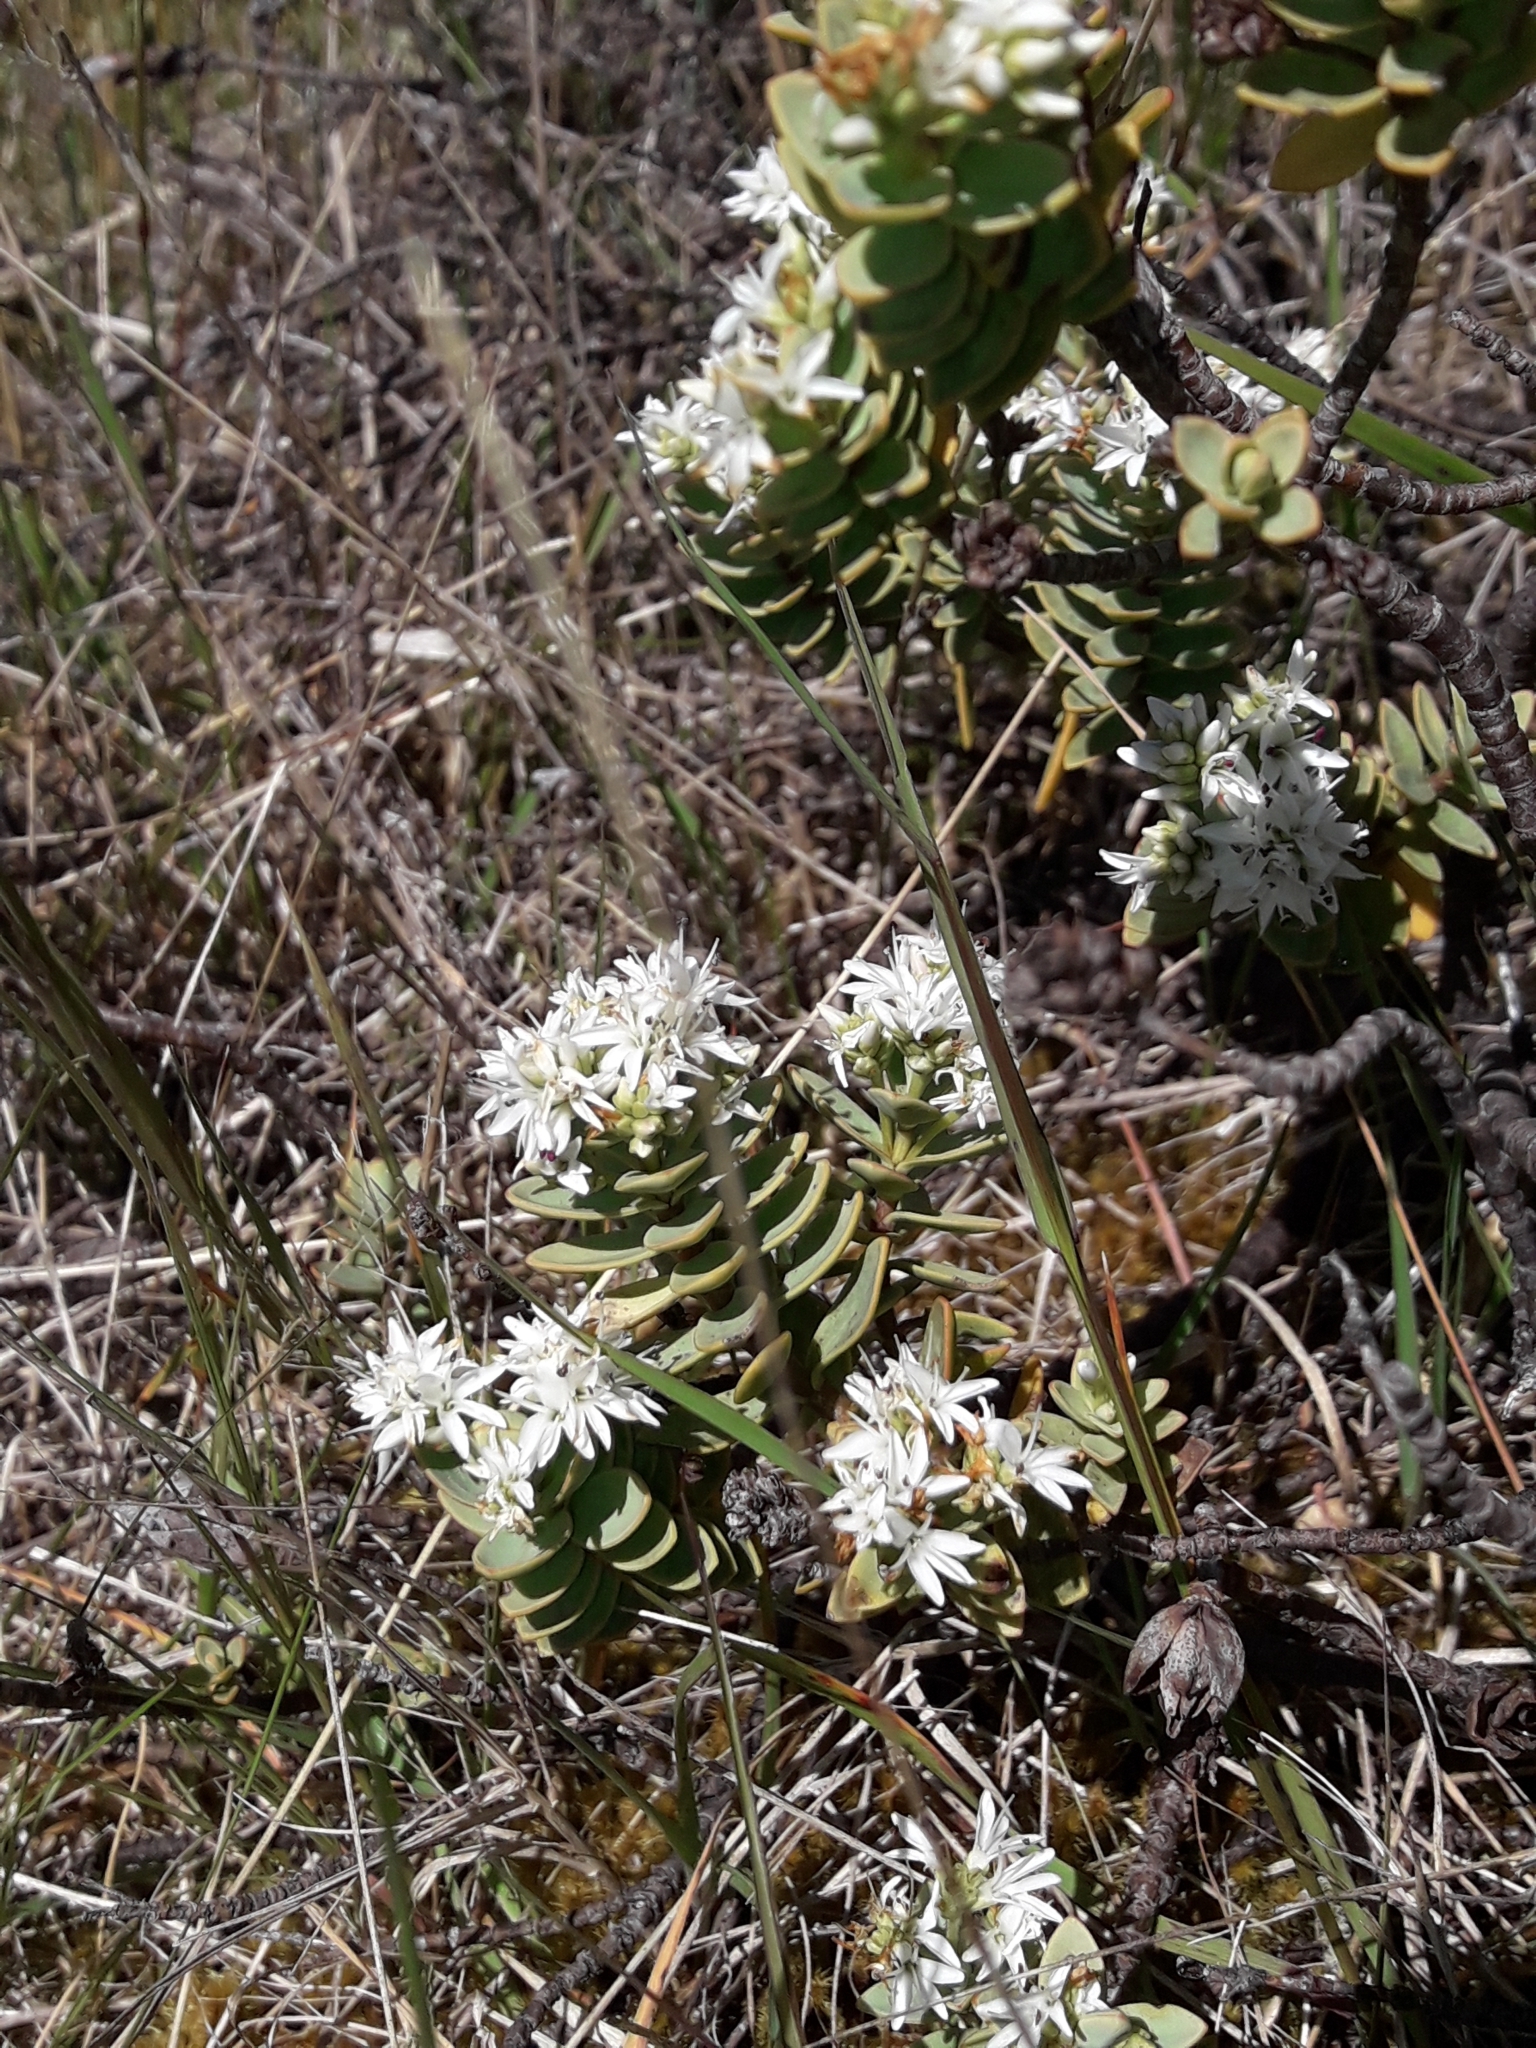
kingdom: Plantae
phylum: Tracheophyta
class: Magnoliopsida
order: Lamiales
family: Plantaginaceae
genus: Veronica
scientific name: Veronica pinguifolia
